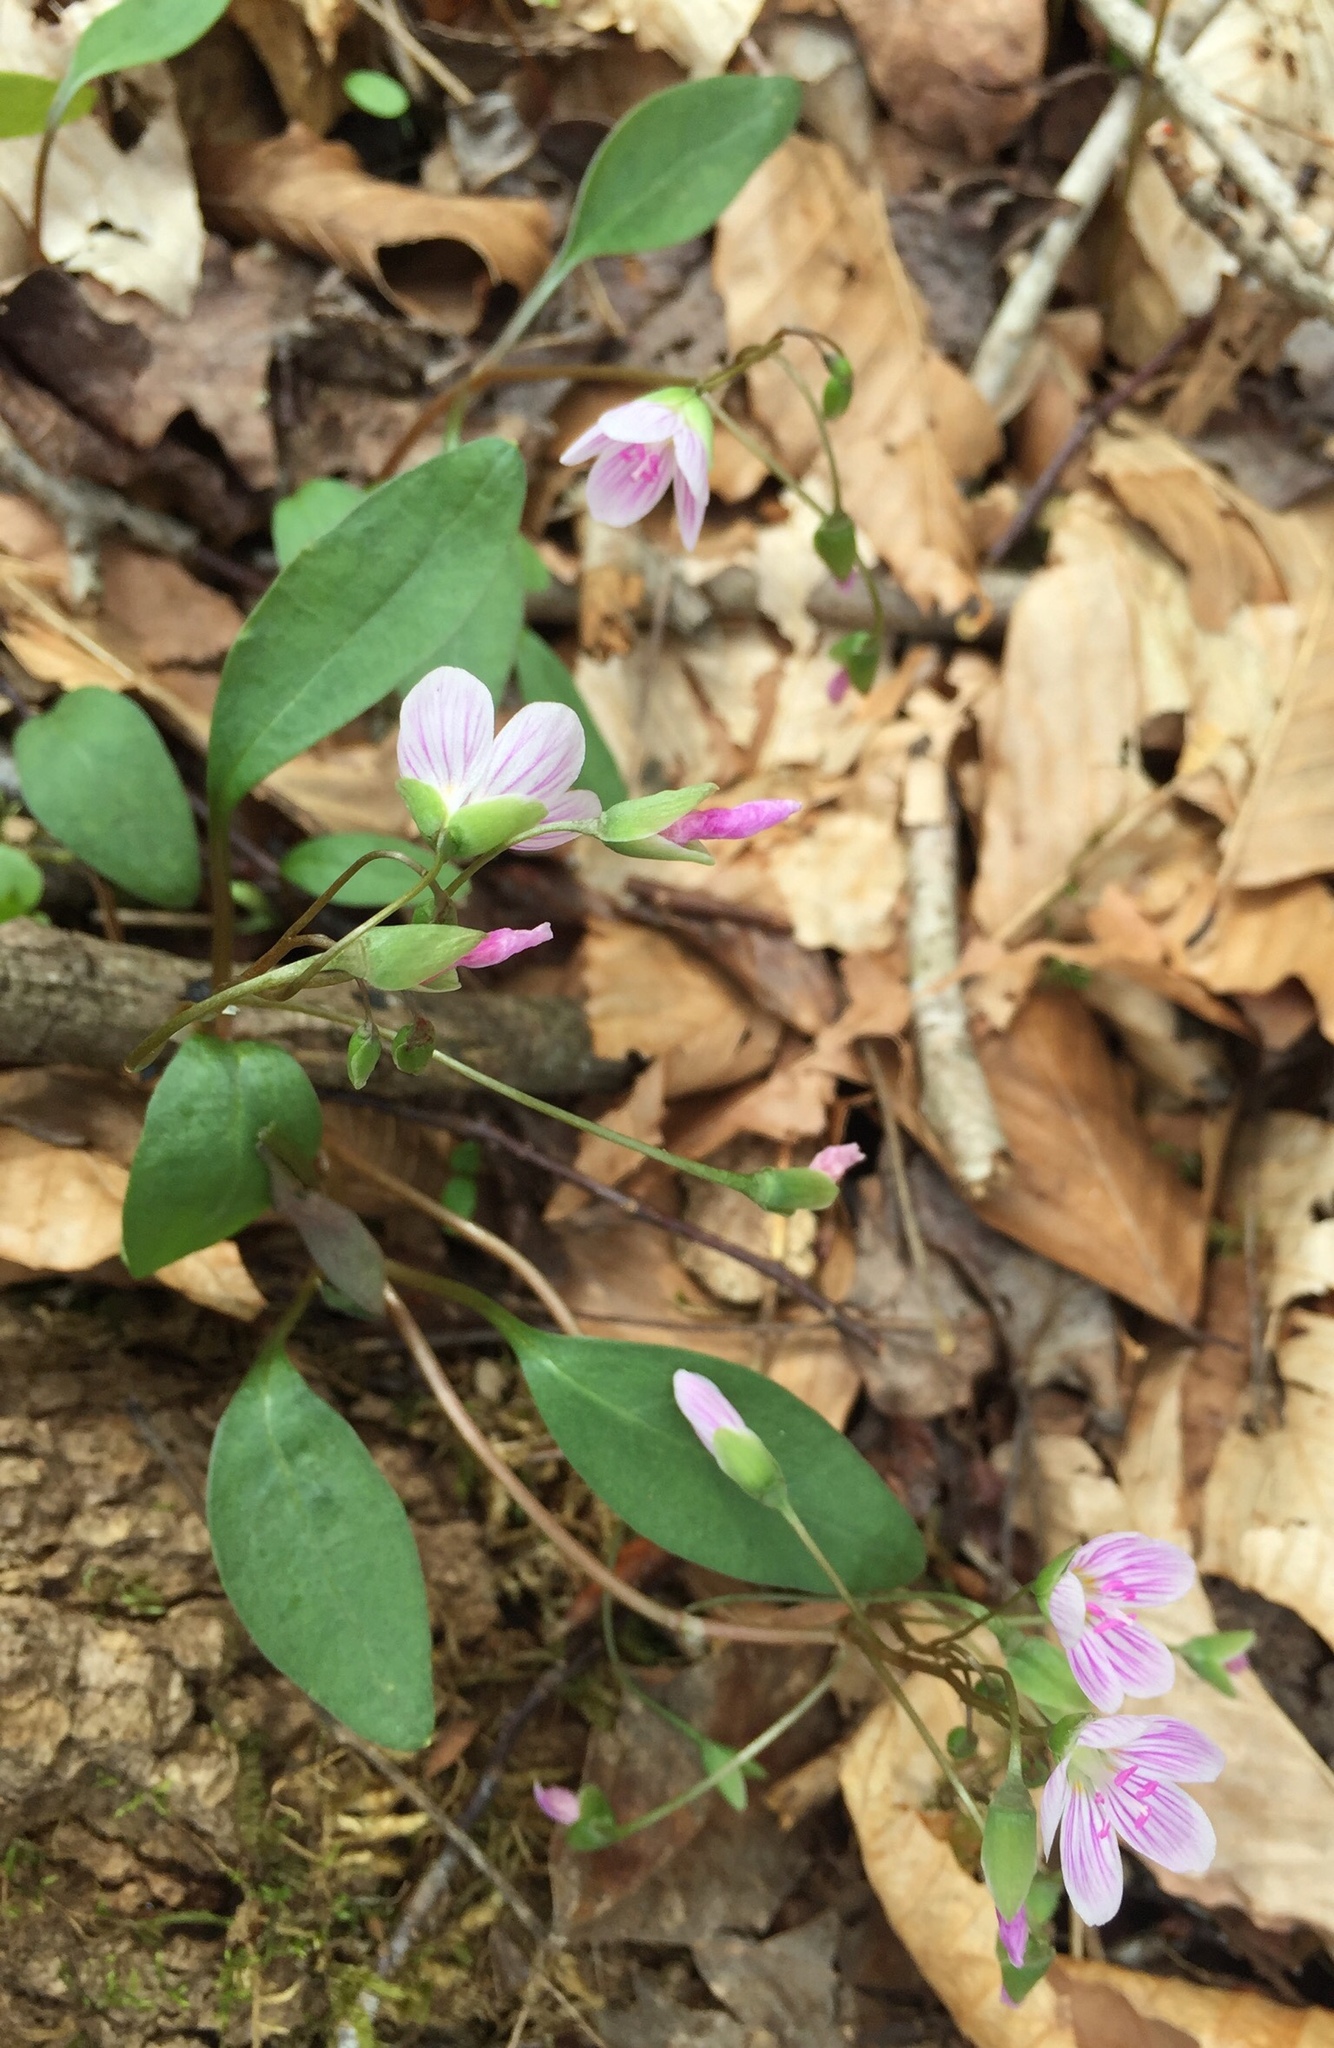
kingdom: Plantae
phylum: Tracheophyta
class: Magnoliopsida
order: Caryophyllales
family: Montiaceae
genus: Claytonia
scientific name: Claytonia caroliniana
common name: Carolina spring beauty
